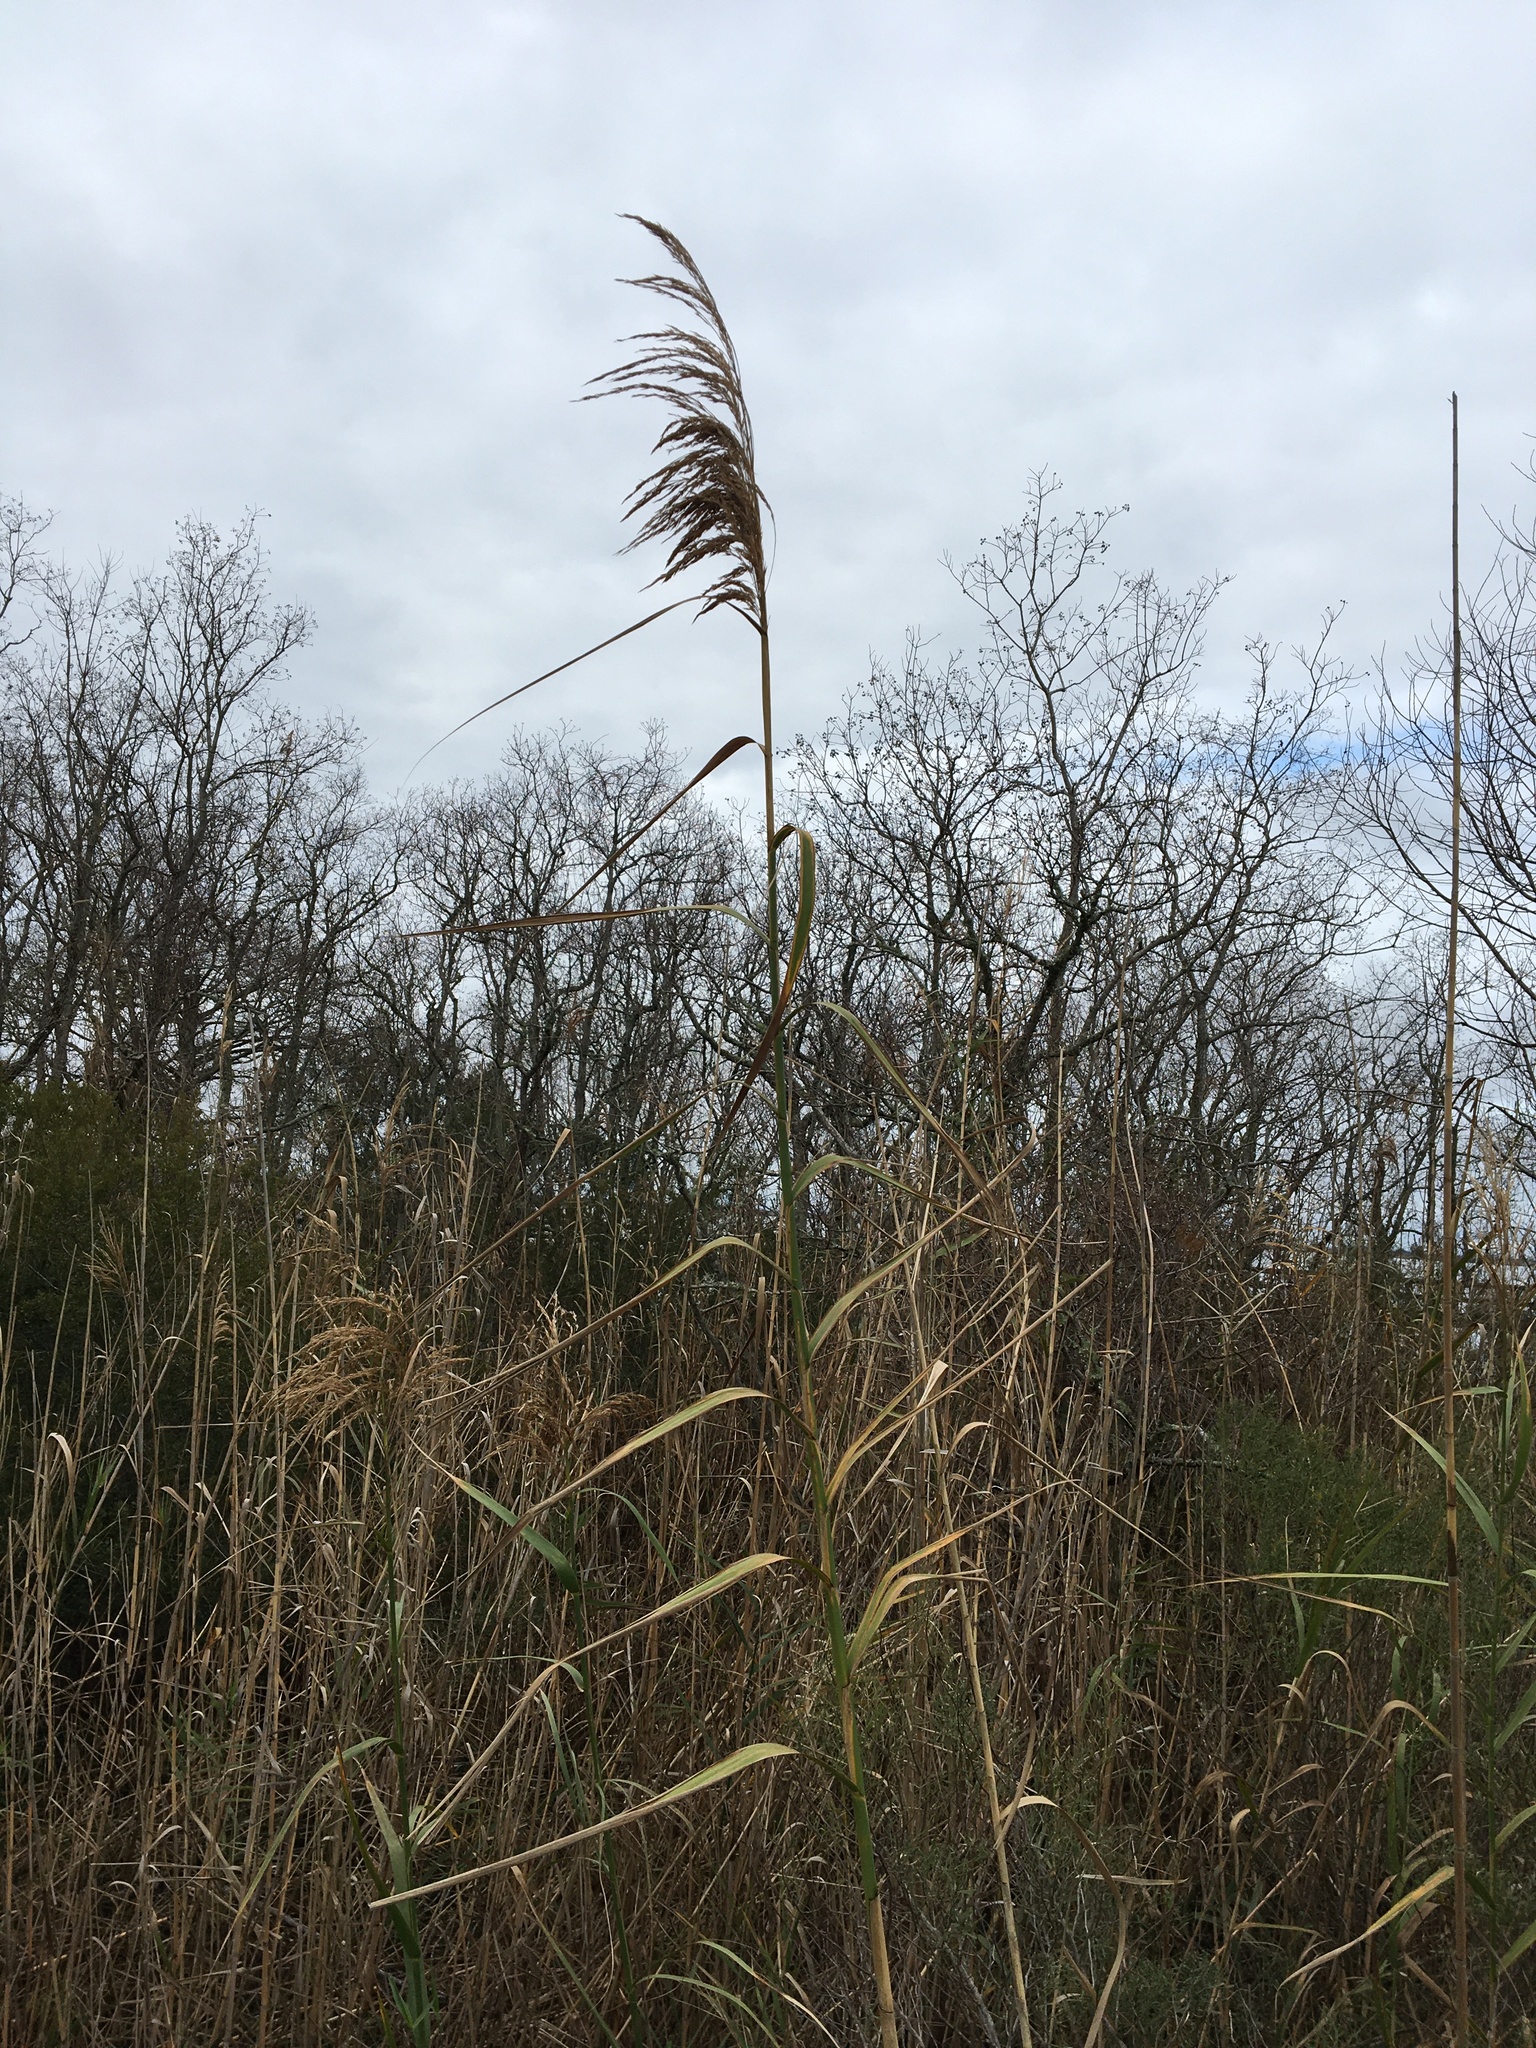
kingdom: Plantae
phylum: Tracheophyta
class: Liliopsida
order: Poales
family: Poaceae
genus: Phragmites
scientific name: Phragmites australis
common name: Common reed
